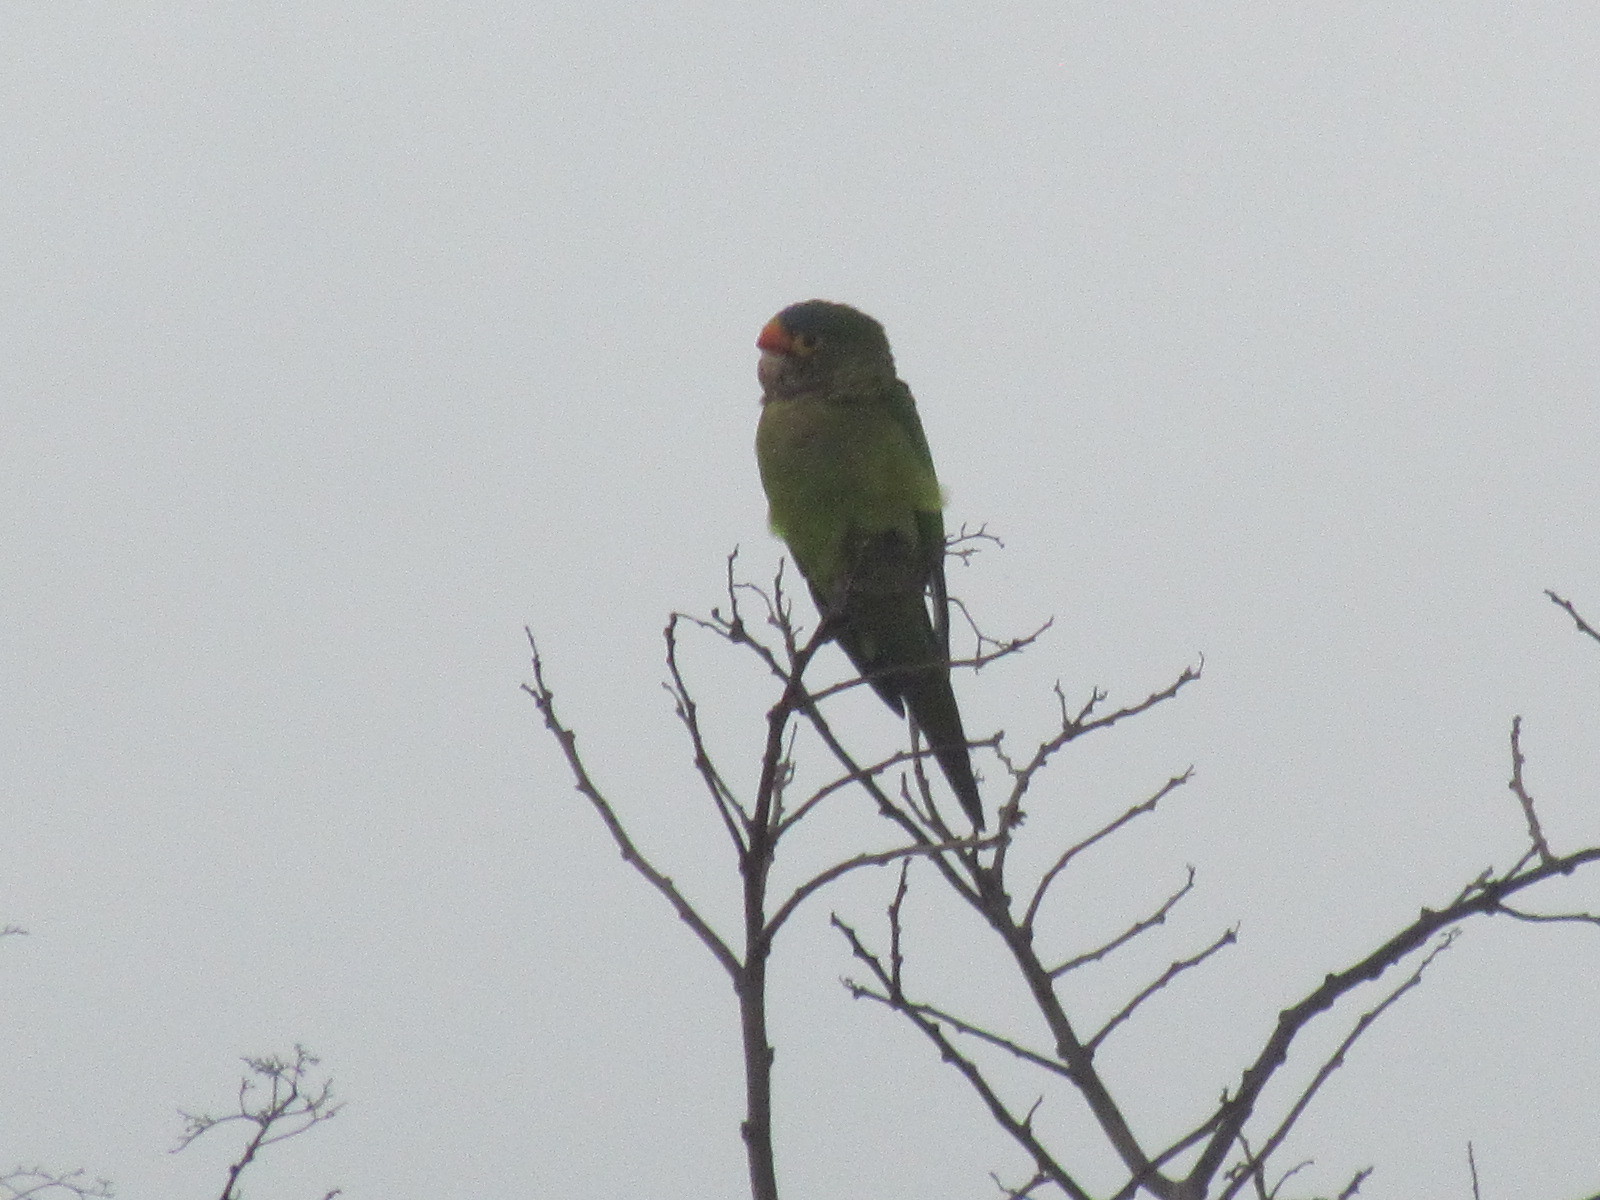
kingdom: Animalia
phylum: Chordata
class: Aves
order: Psittaciformes
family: Psittacidae
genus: Aratinga
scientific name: Aratinga canicularis
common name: Orange-fronted parakeet
